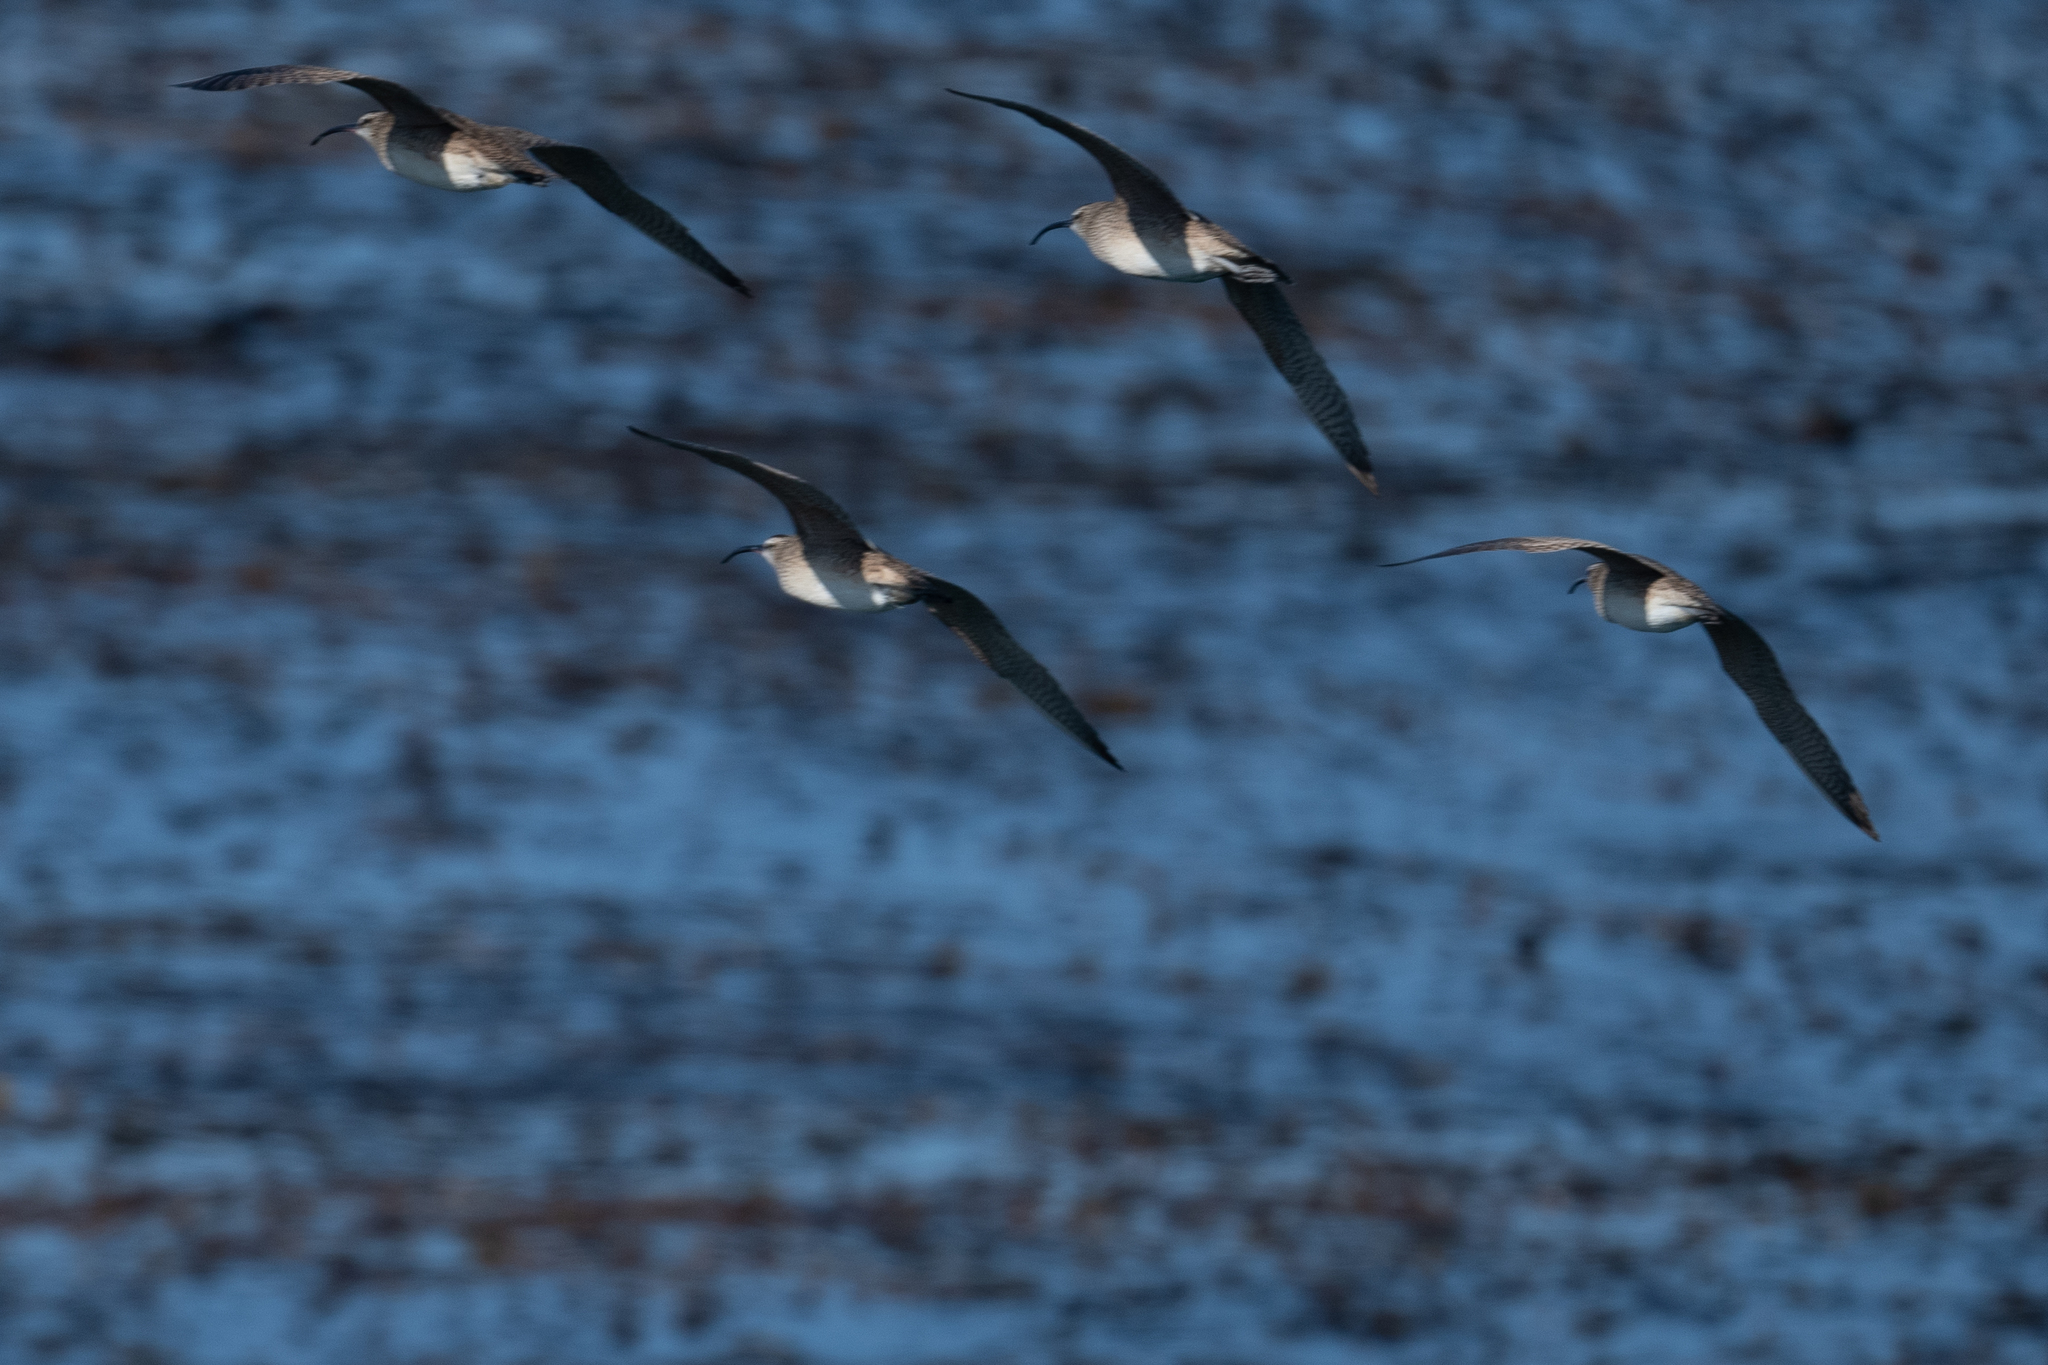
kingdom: Animalia
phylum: Chordata
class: Aves
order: Charadriiformes
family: Scolopacidae
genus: Numenius
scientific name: Numenius phaeopus
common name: Whimbrel
